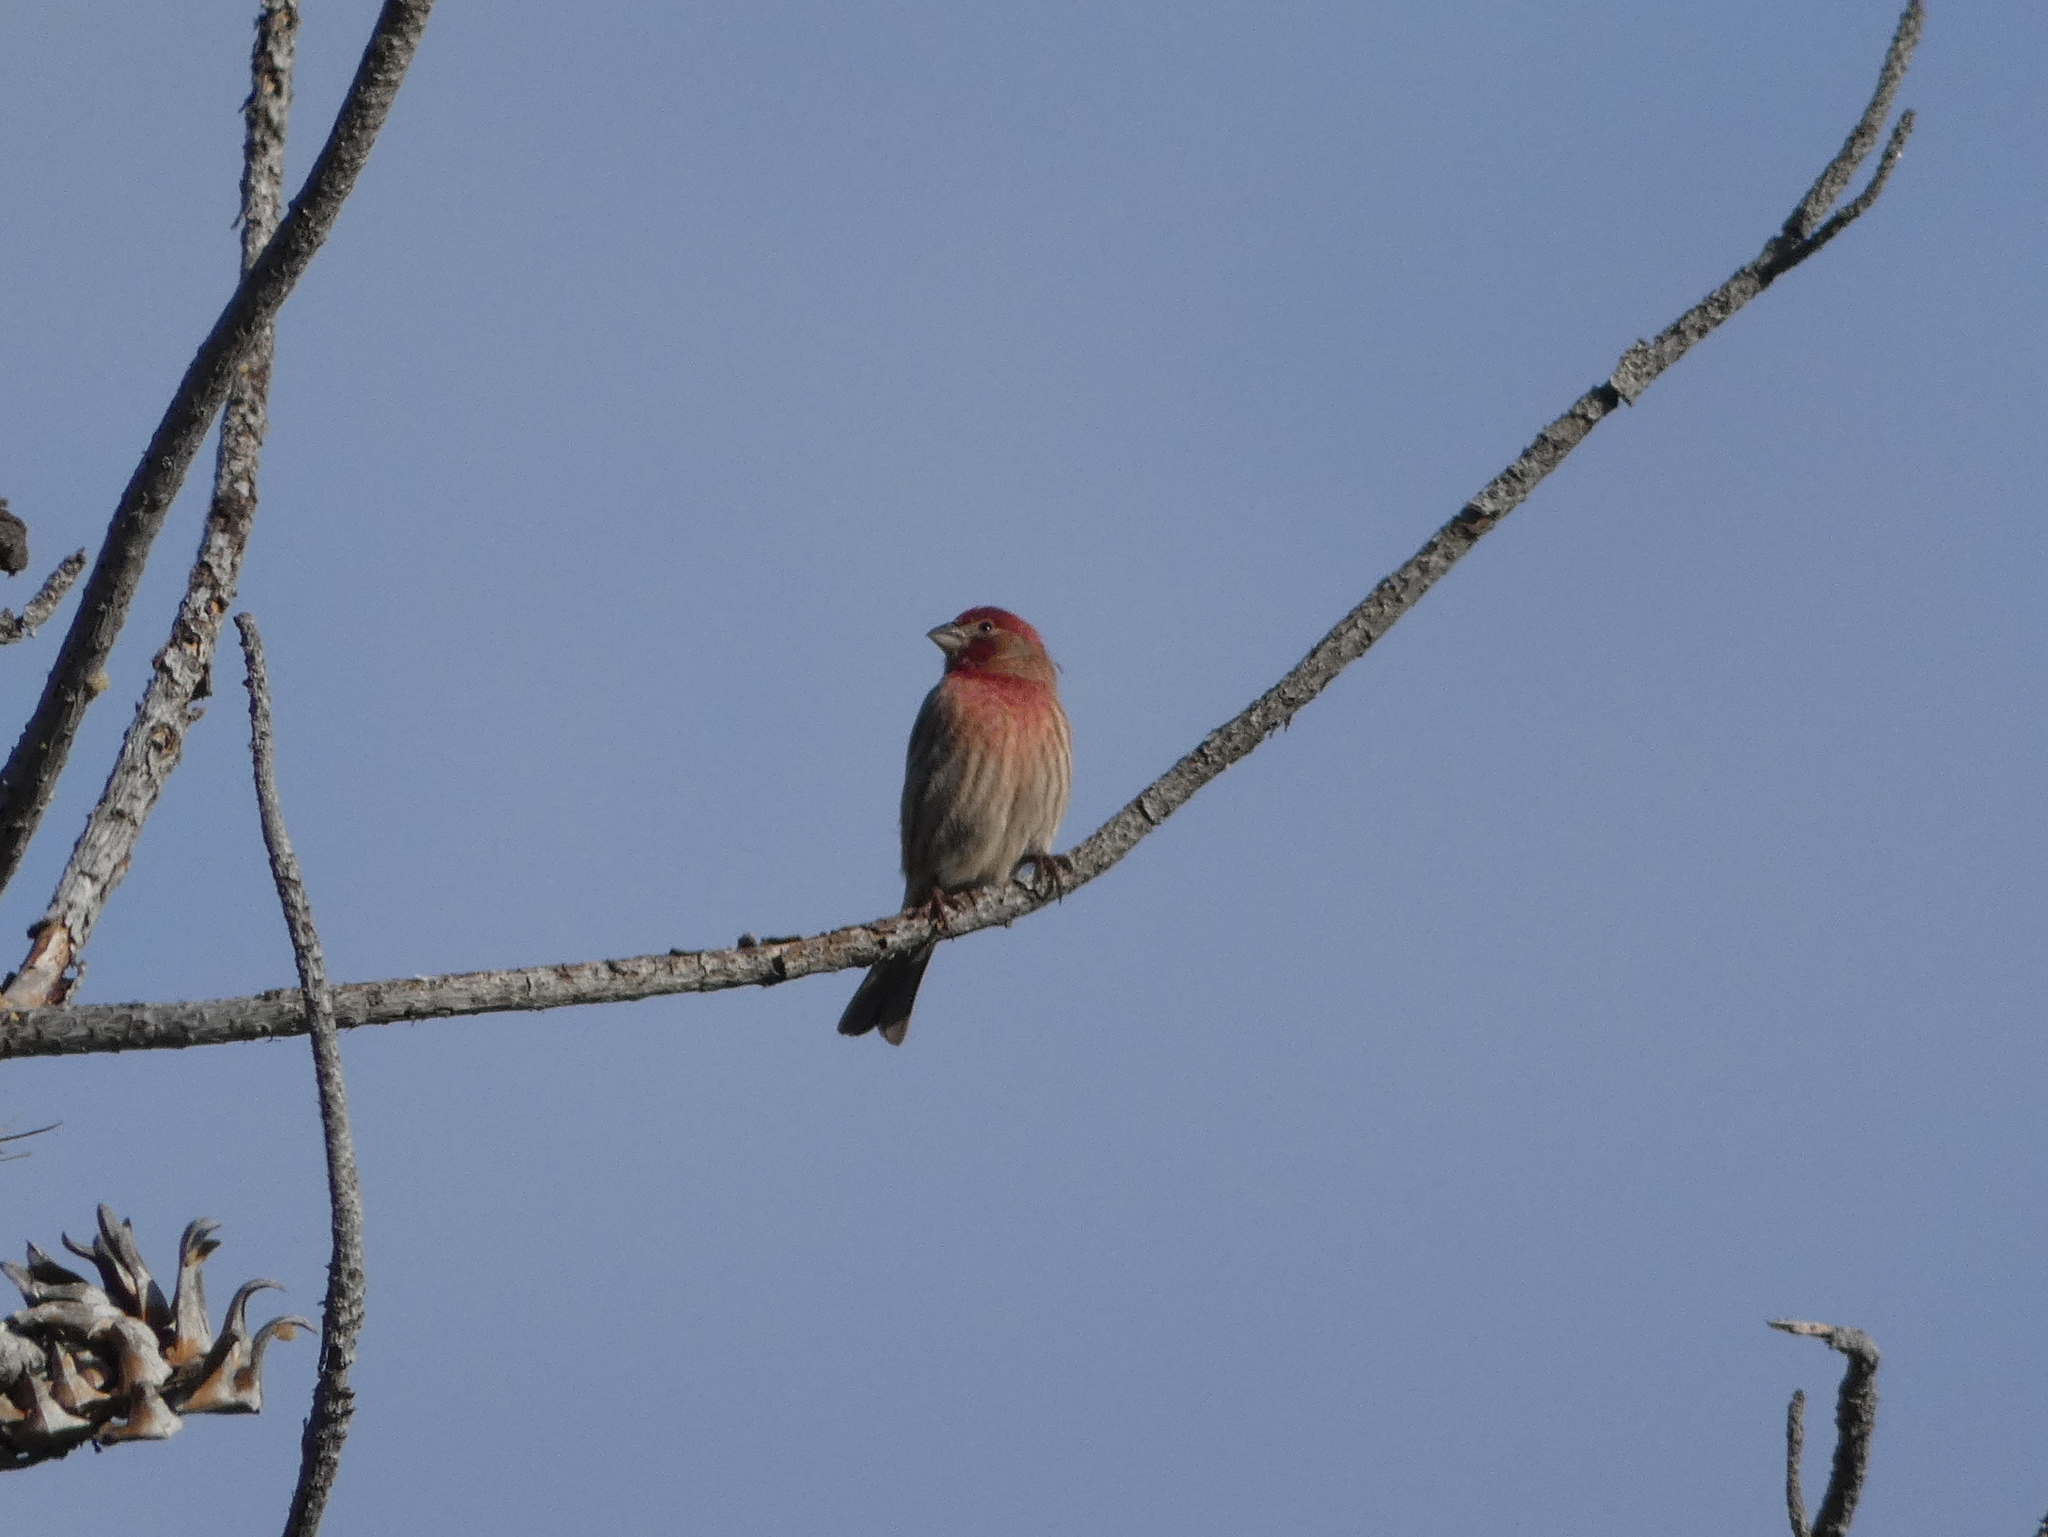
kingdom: Animalia
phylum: Chordata
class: Aves
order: Passeriformes
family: Fringillidae
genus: Haemorhous
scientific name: Haemorhous mexicanus
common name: House finch
